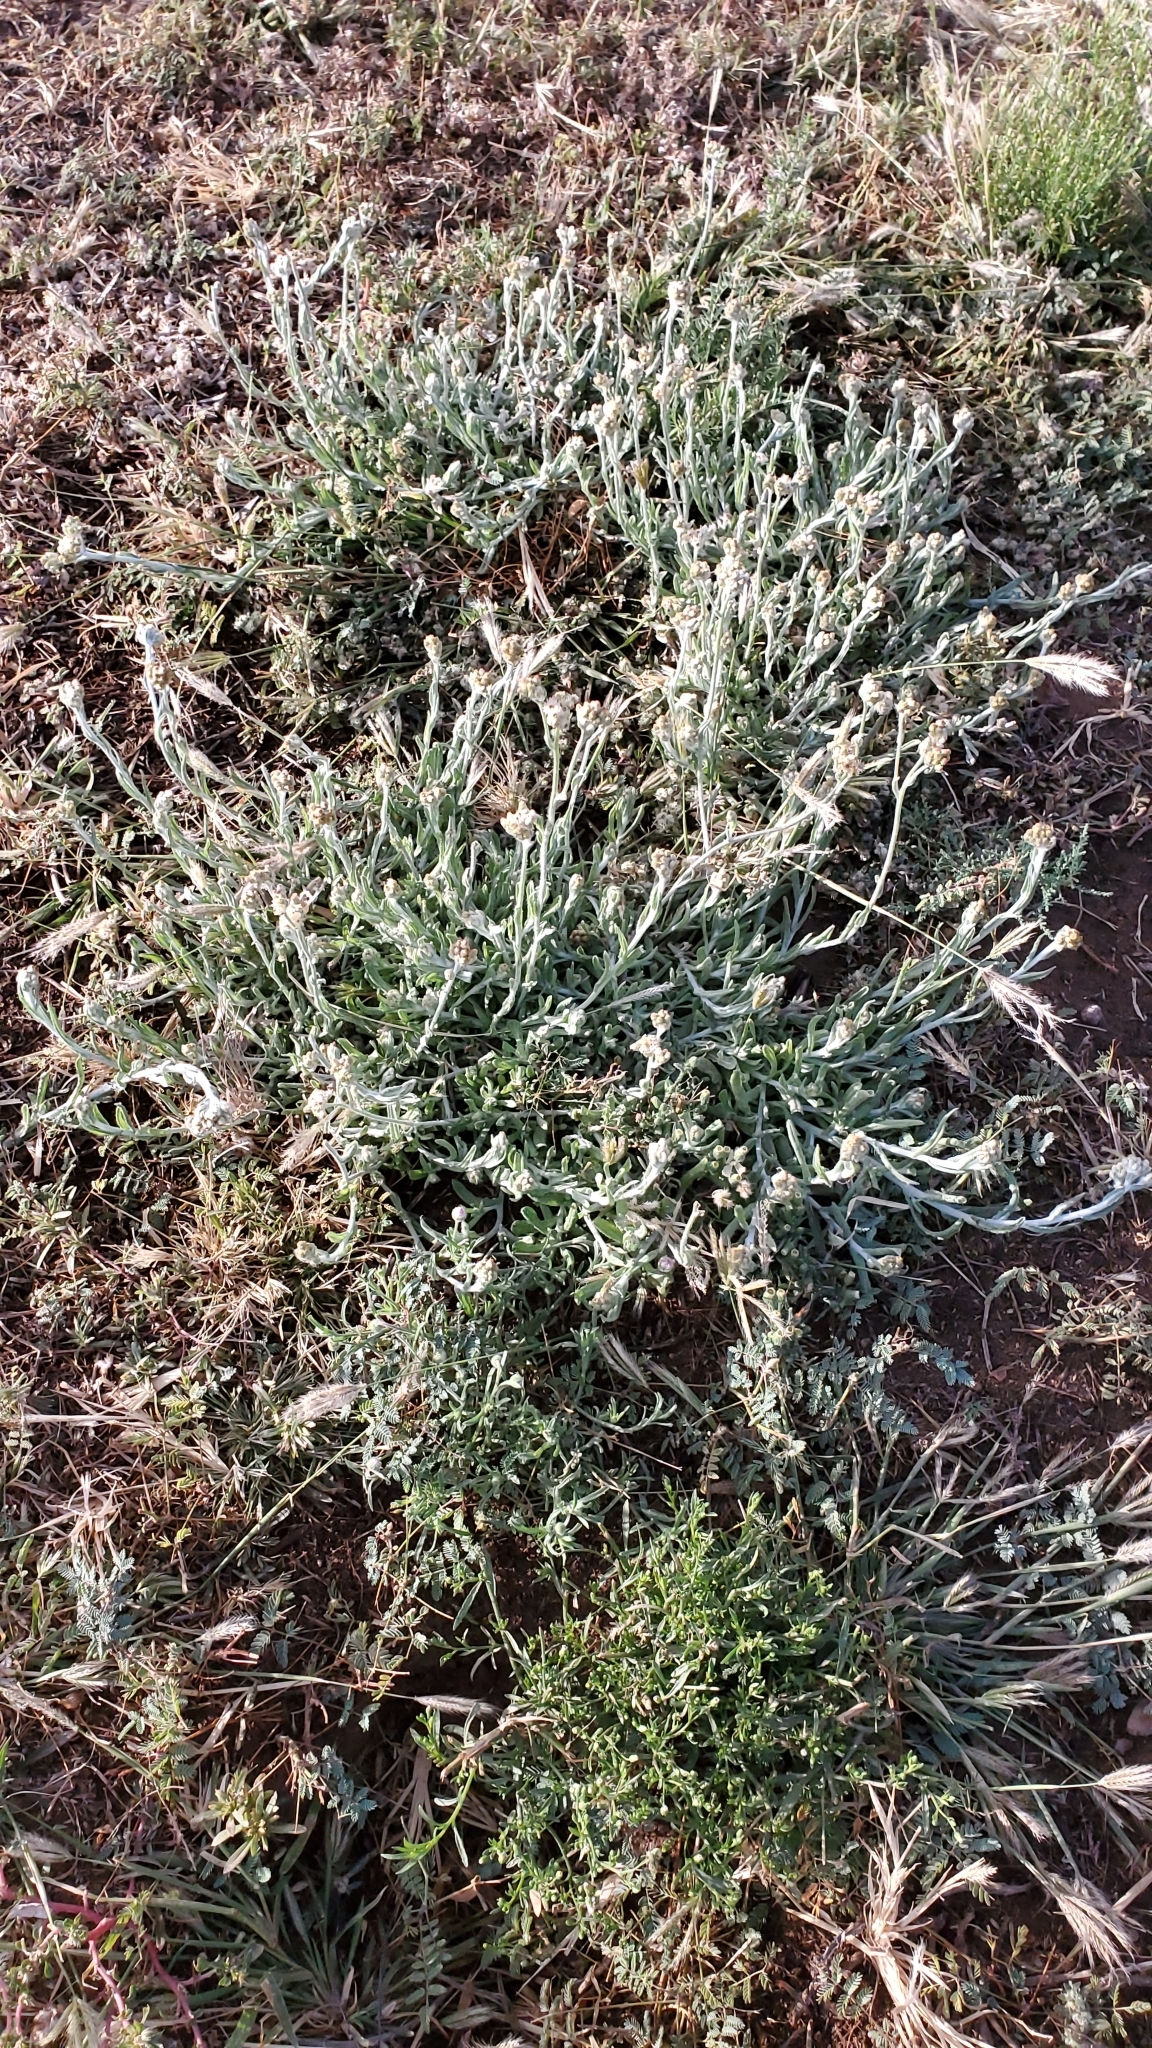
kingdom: Plantae
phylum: Tracheophyta
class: Magnoliopsida
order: Asterales
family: Asteraceae
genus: Helichrysum
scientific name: Helichrysum luteoalbum
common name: Daisy
